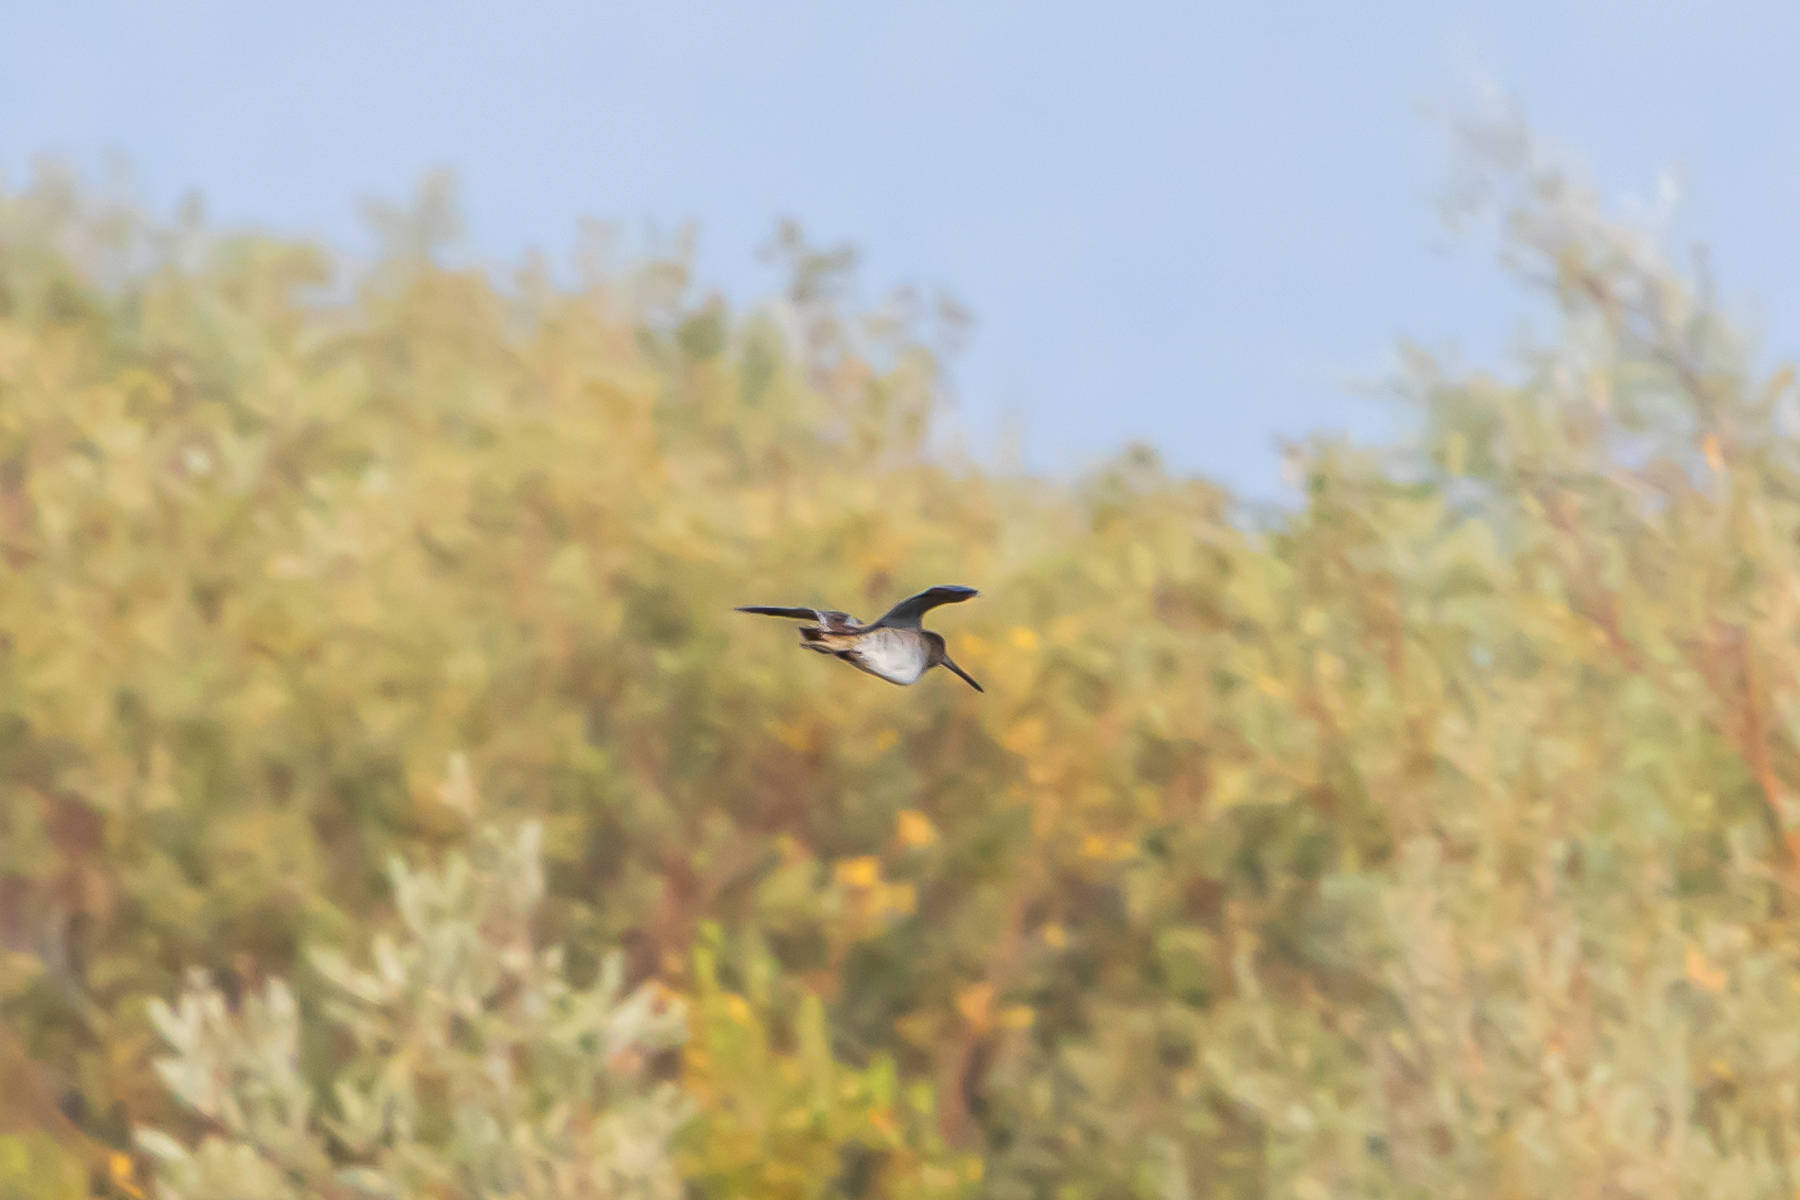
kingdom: Animalia
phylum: Chordata
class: Aves
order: Charadriiformes
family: Scolopacidae
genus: Gallinago
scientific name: Gallinago delicata
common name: Wilson's snipe
